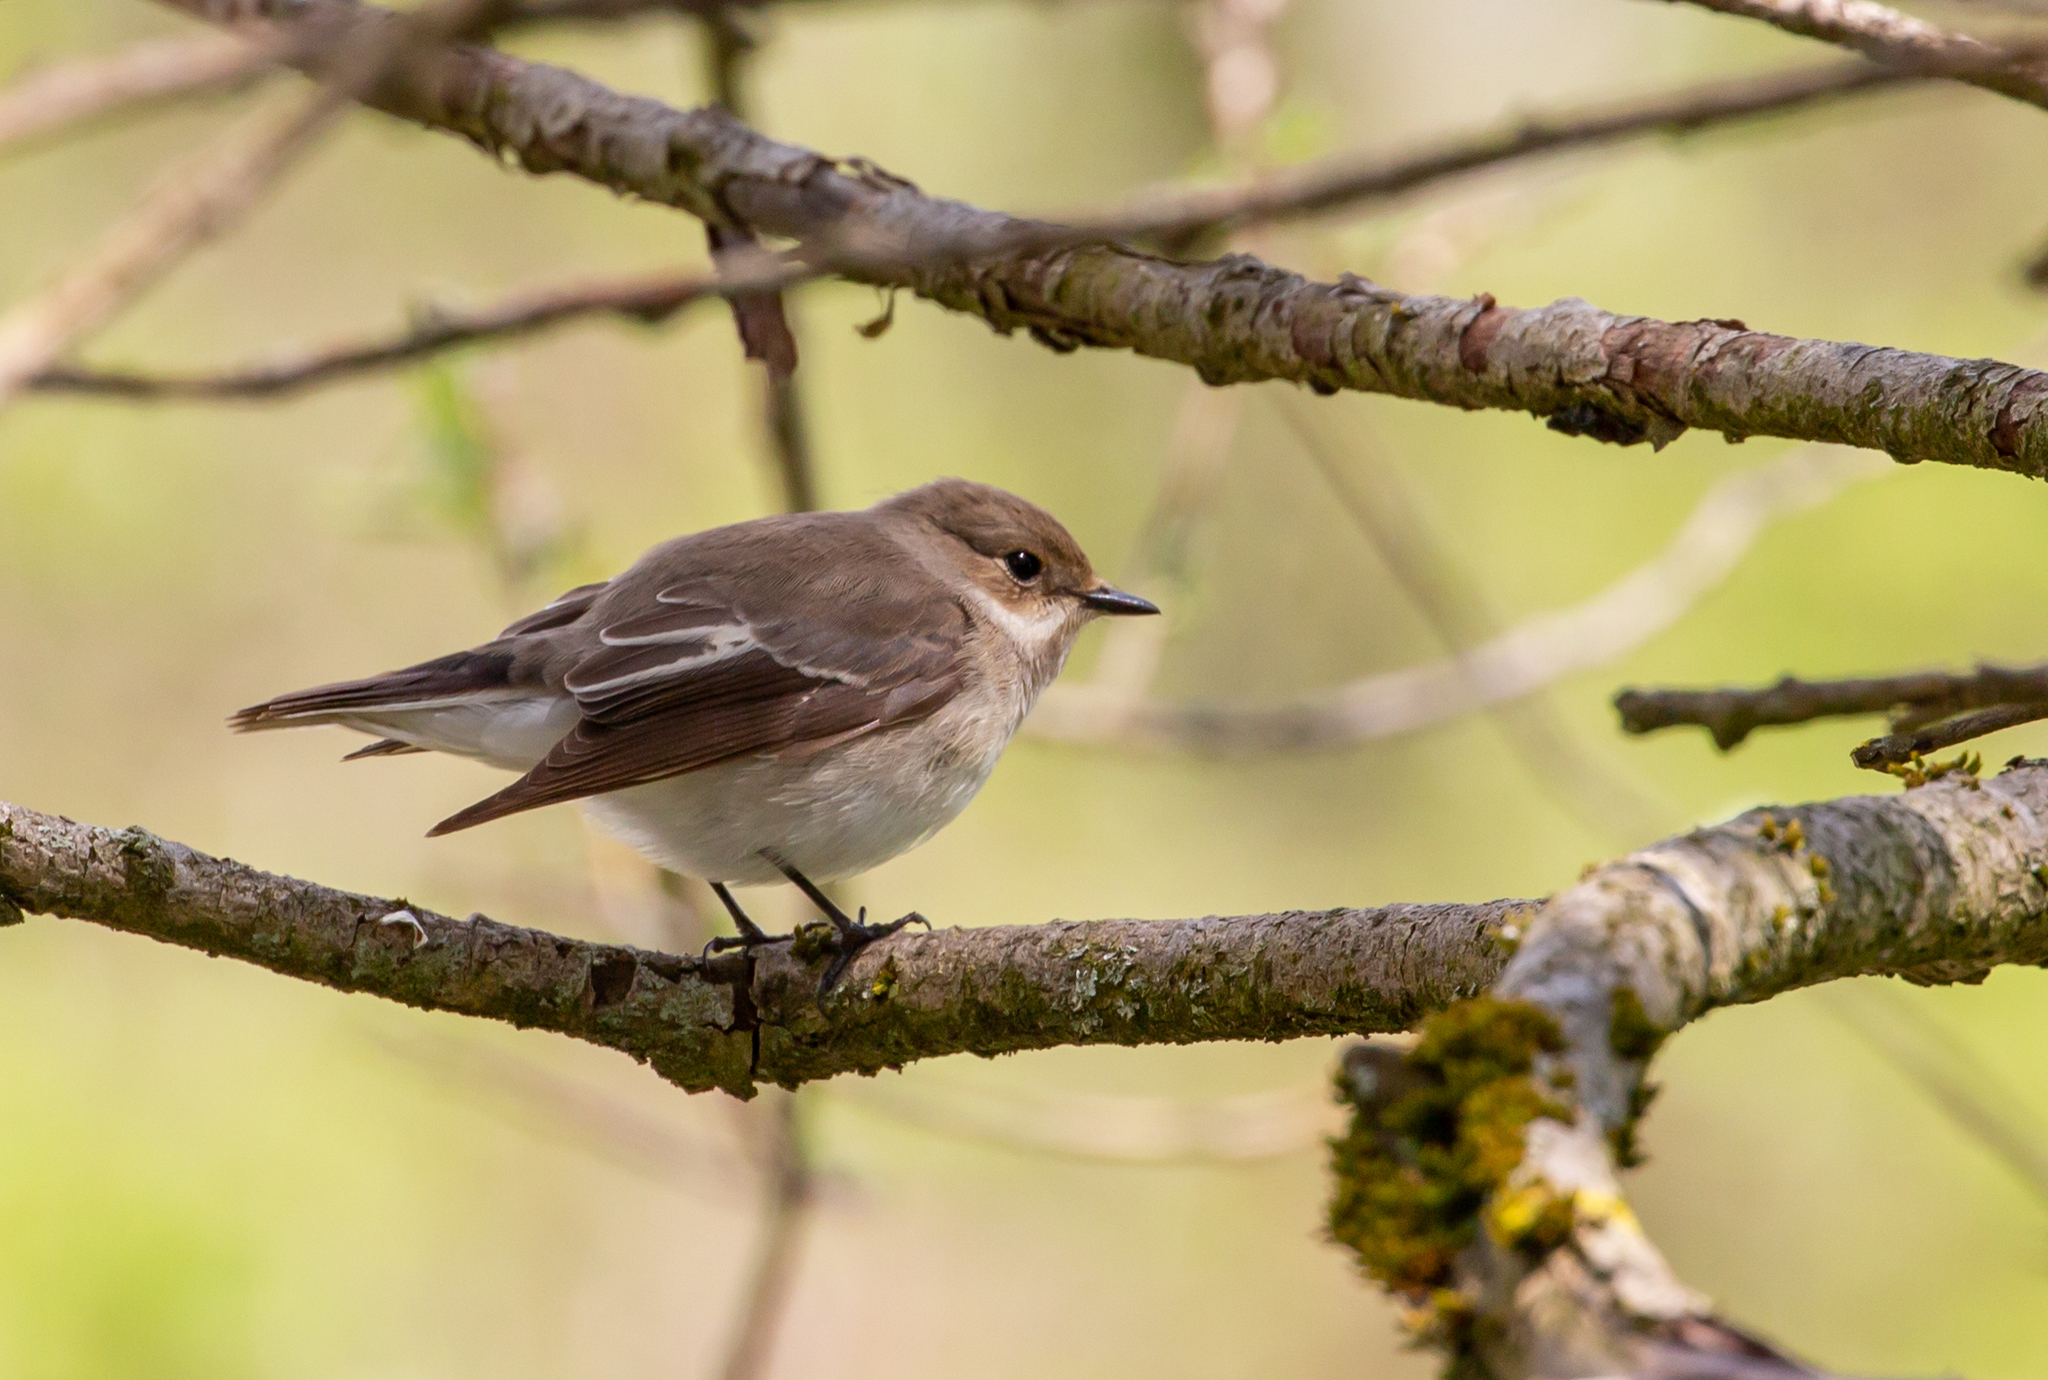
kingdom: Animalia
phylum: Chordata
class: Aves
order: Passeriformes
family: Muscicapidae
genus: Ficedula
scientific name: Ficedula hypoleuca
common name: European pied flycatcher
